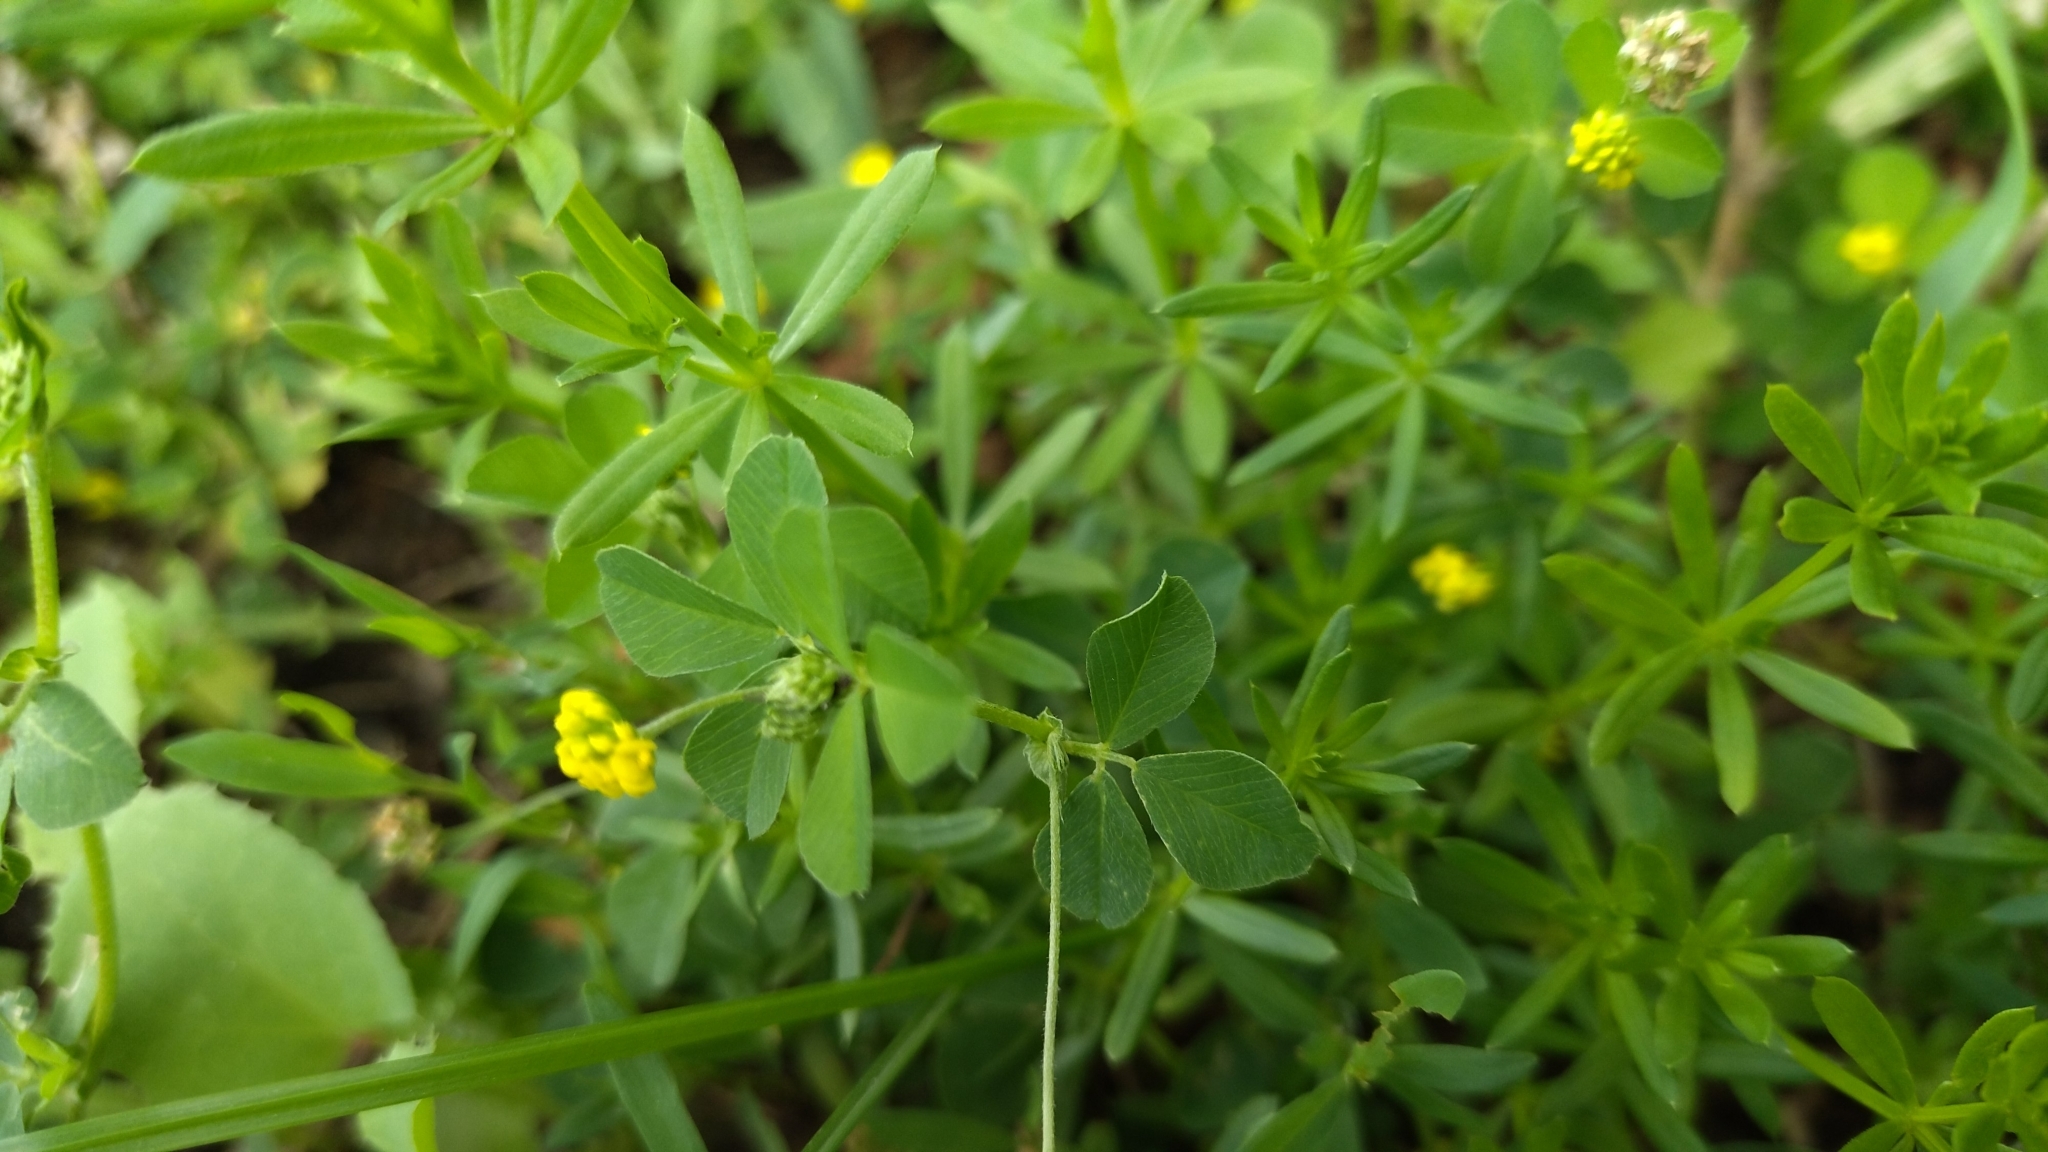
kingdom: Plantae
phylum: Tracheophyta
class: Magnoliopsida
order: Fabales
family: Fabaceae
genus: Medicago
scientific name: Medicago lupulina
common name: Black medick
